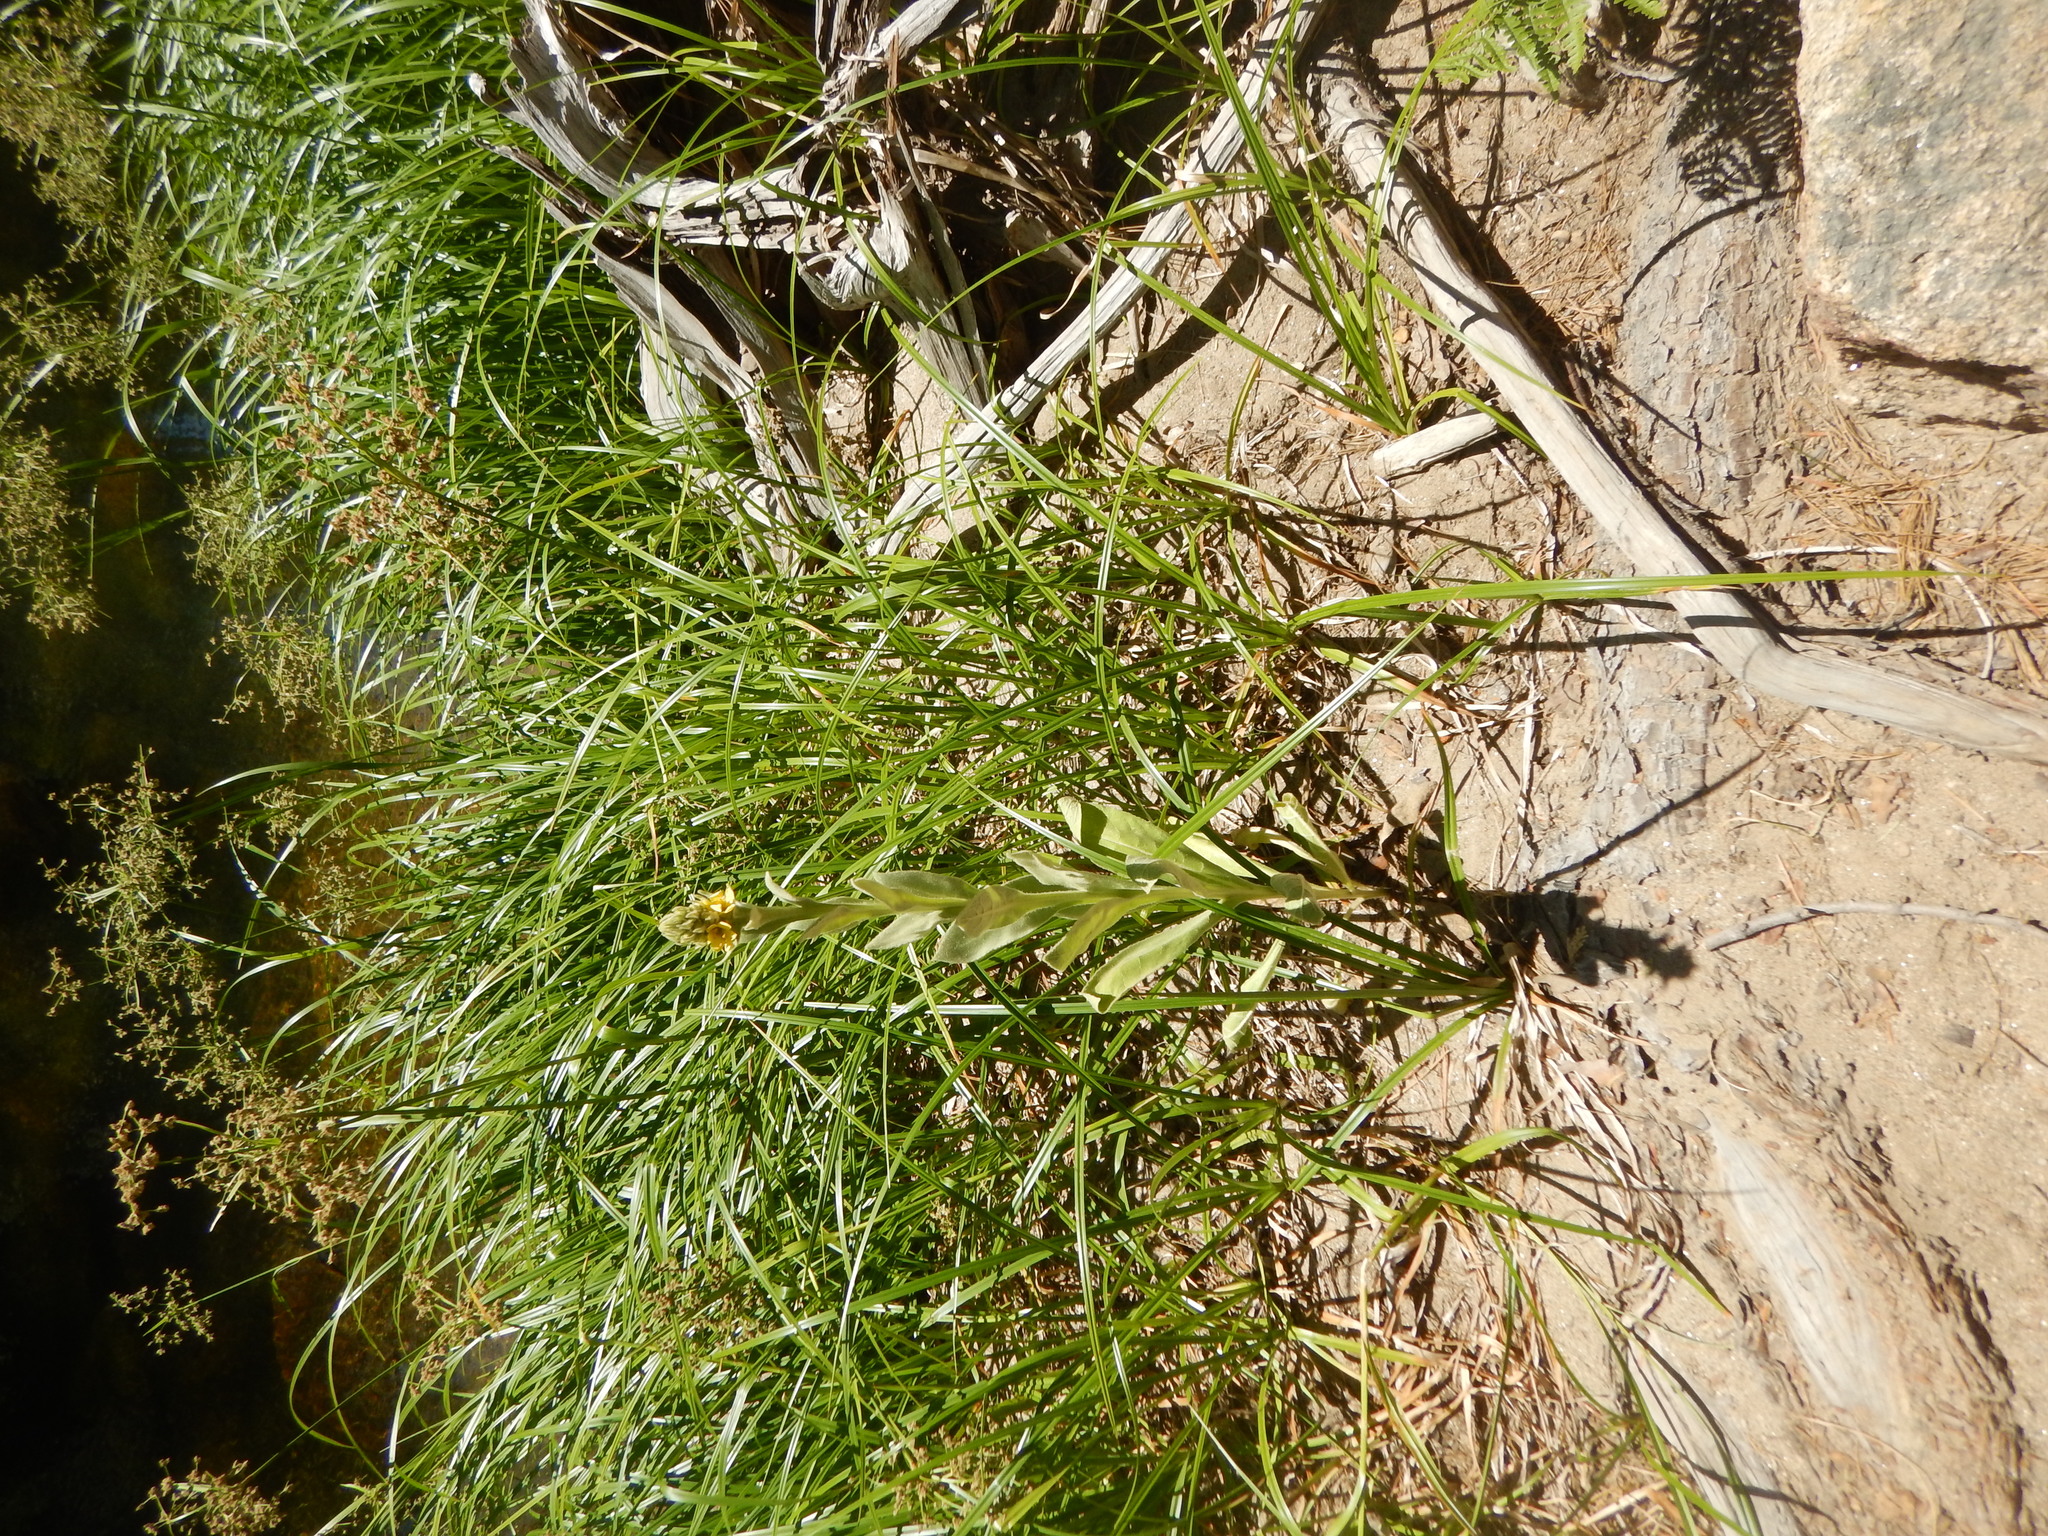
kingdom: Plantae
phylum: Tracheophyta
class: Magnoliopsida
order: Lamiales
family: Scrophulariaceae
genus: Verbascum
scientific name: Verbascum thapsus
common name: Common mullein
